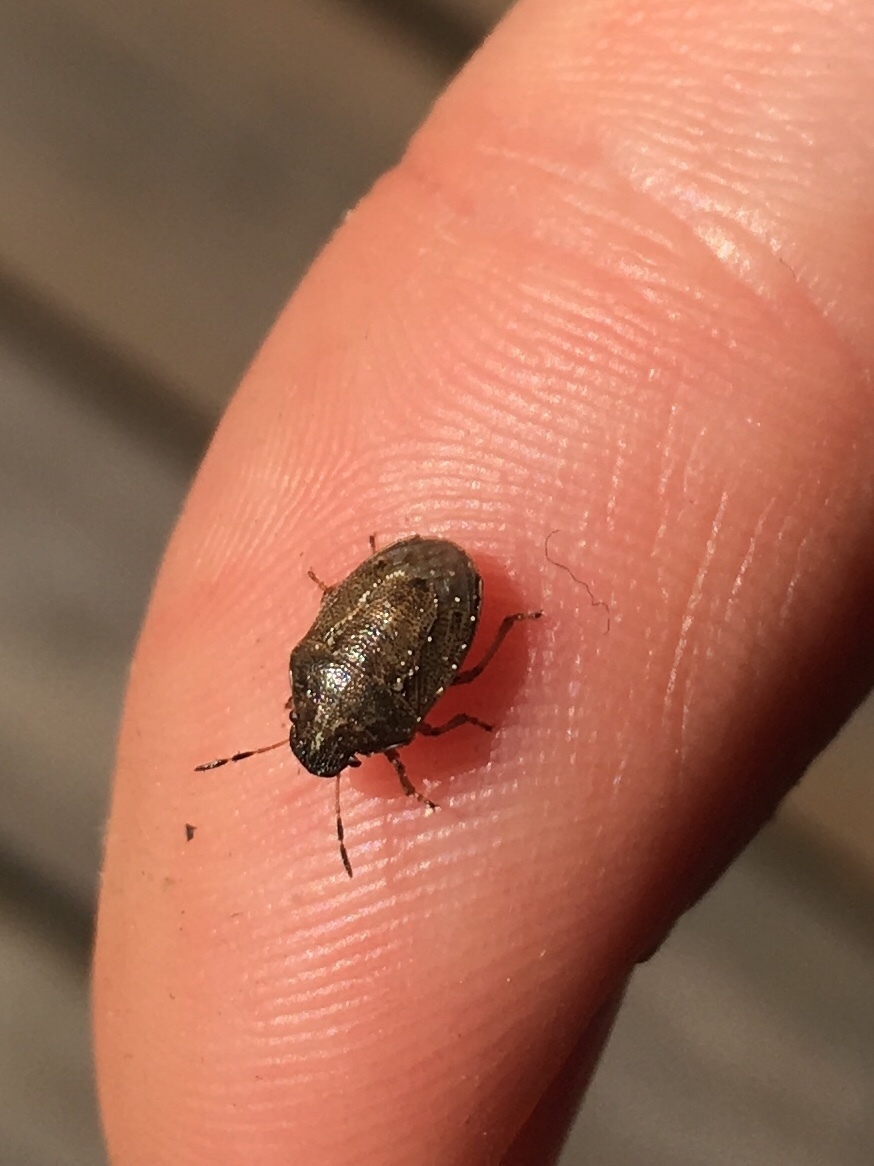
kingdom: Animalia
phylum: Arthropoda
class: Insecta
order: Hemiptera
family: Pentatomidae
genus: Neottiglossa
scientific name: Neottiglossa pusilla
